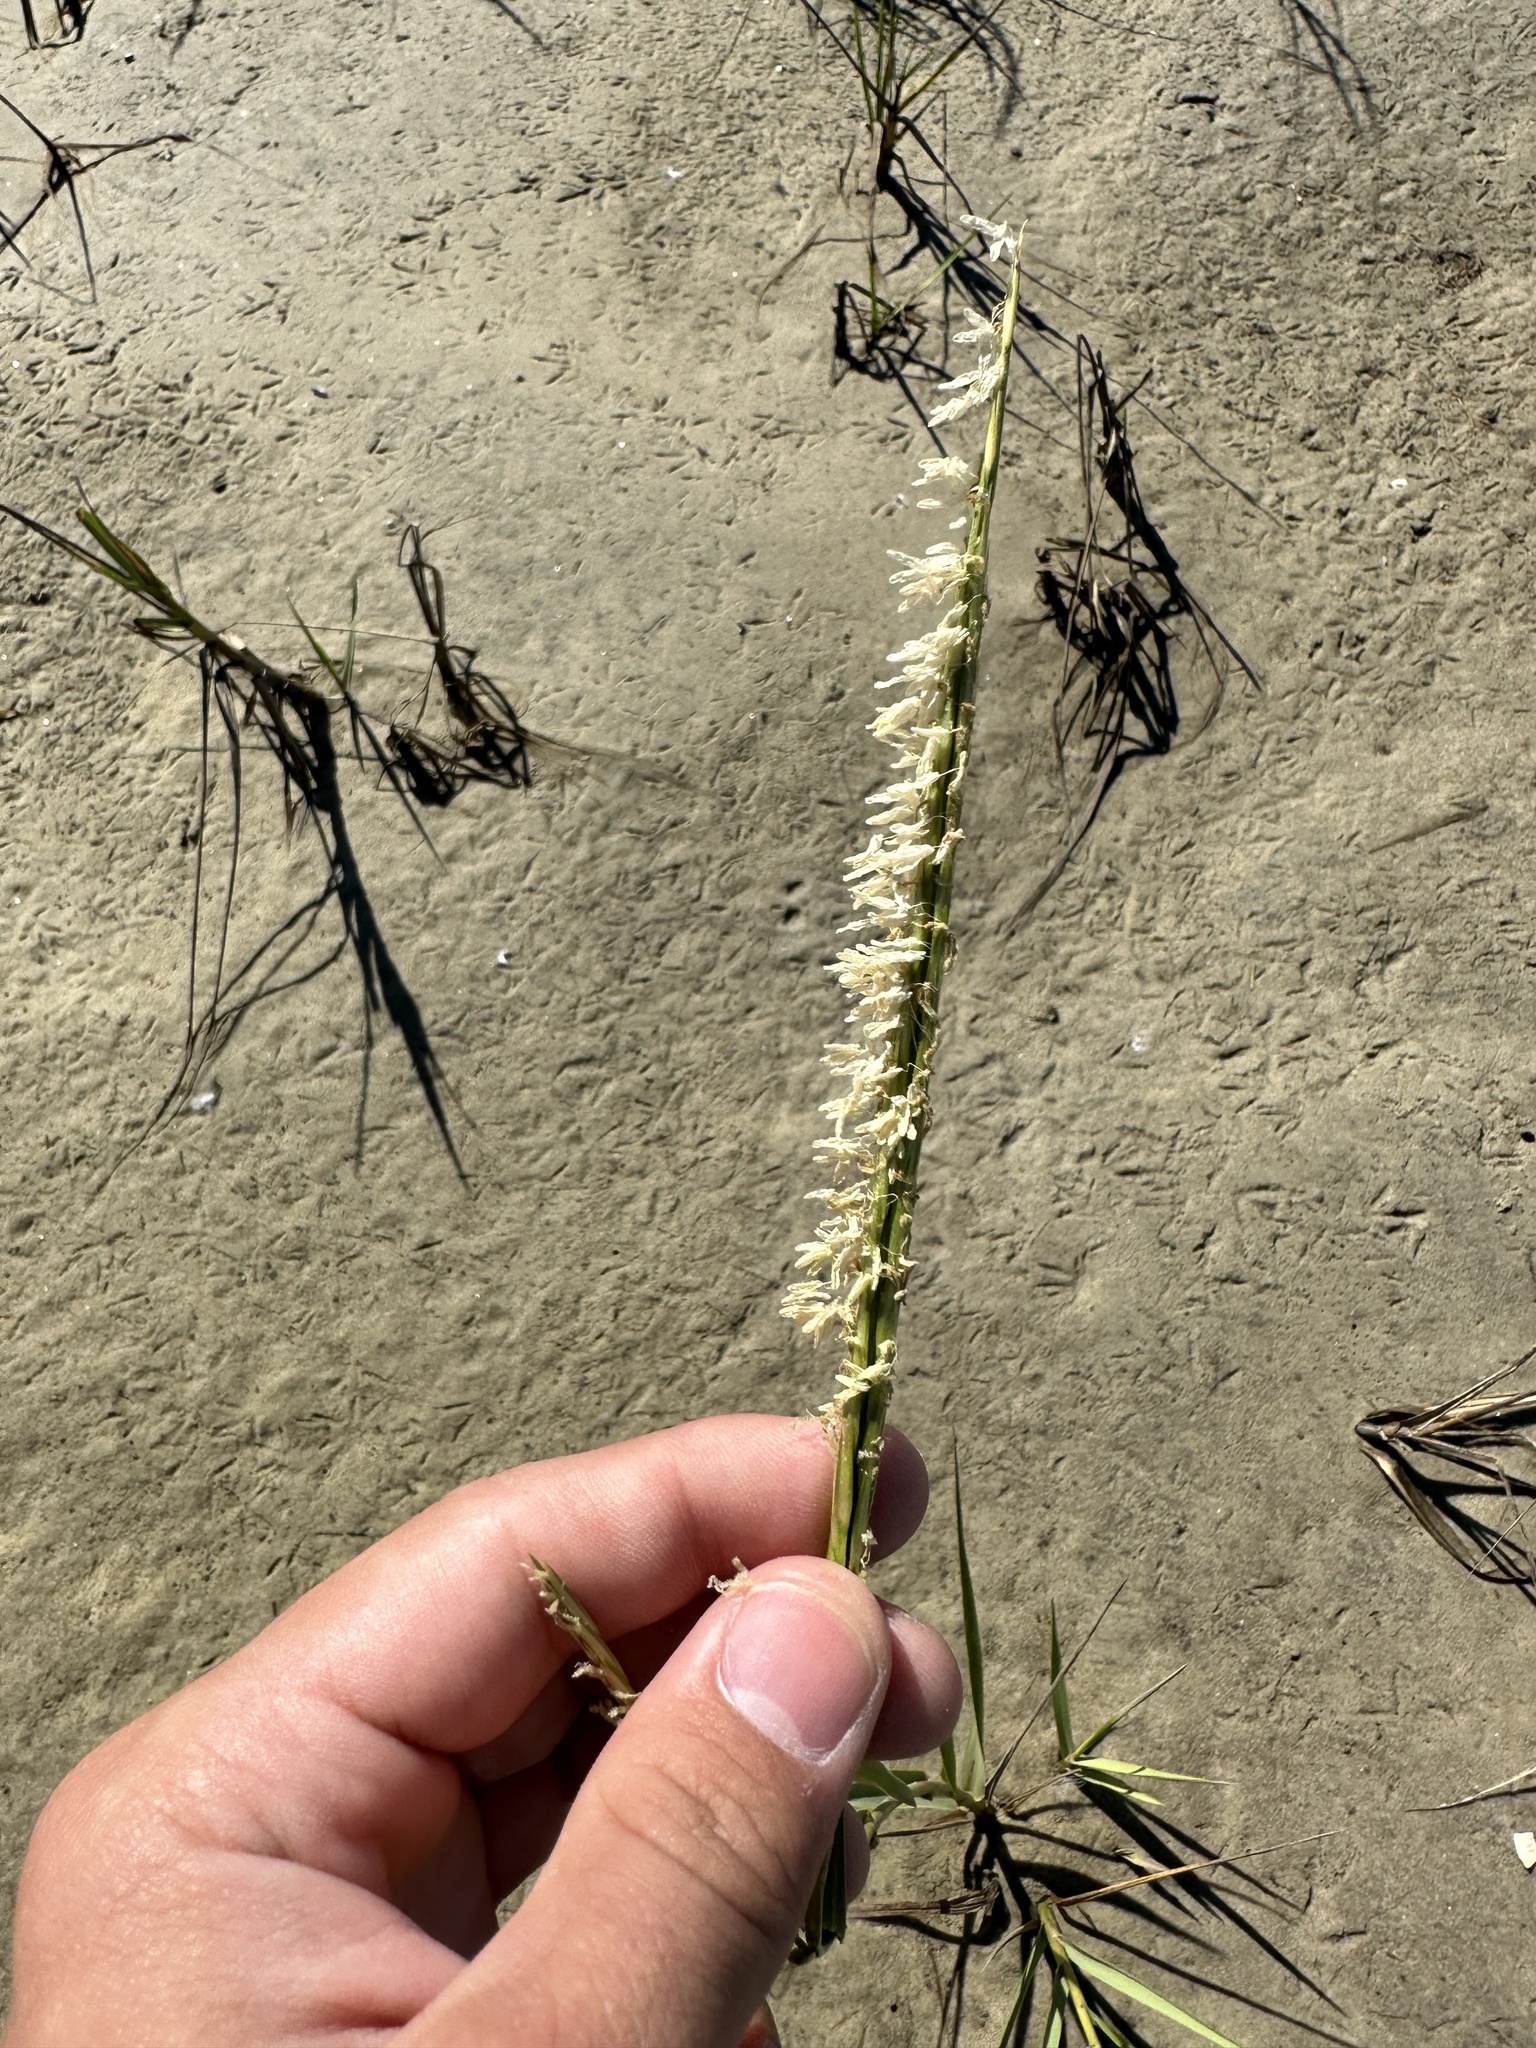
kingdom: Plantae
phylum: Tracheophyta
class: Liliopsida
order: Poales
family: Poaceae
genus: Sporobolus
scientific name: Sporobolus alterniflorus
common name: Atlantic cordgrass
